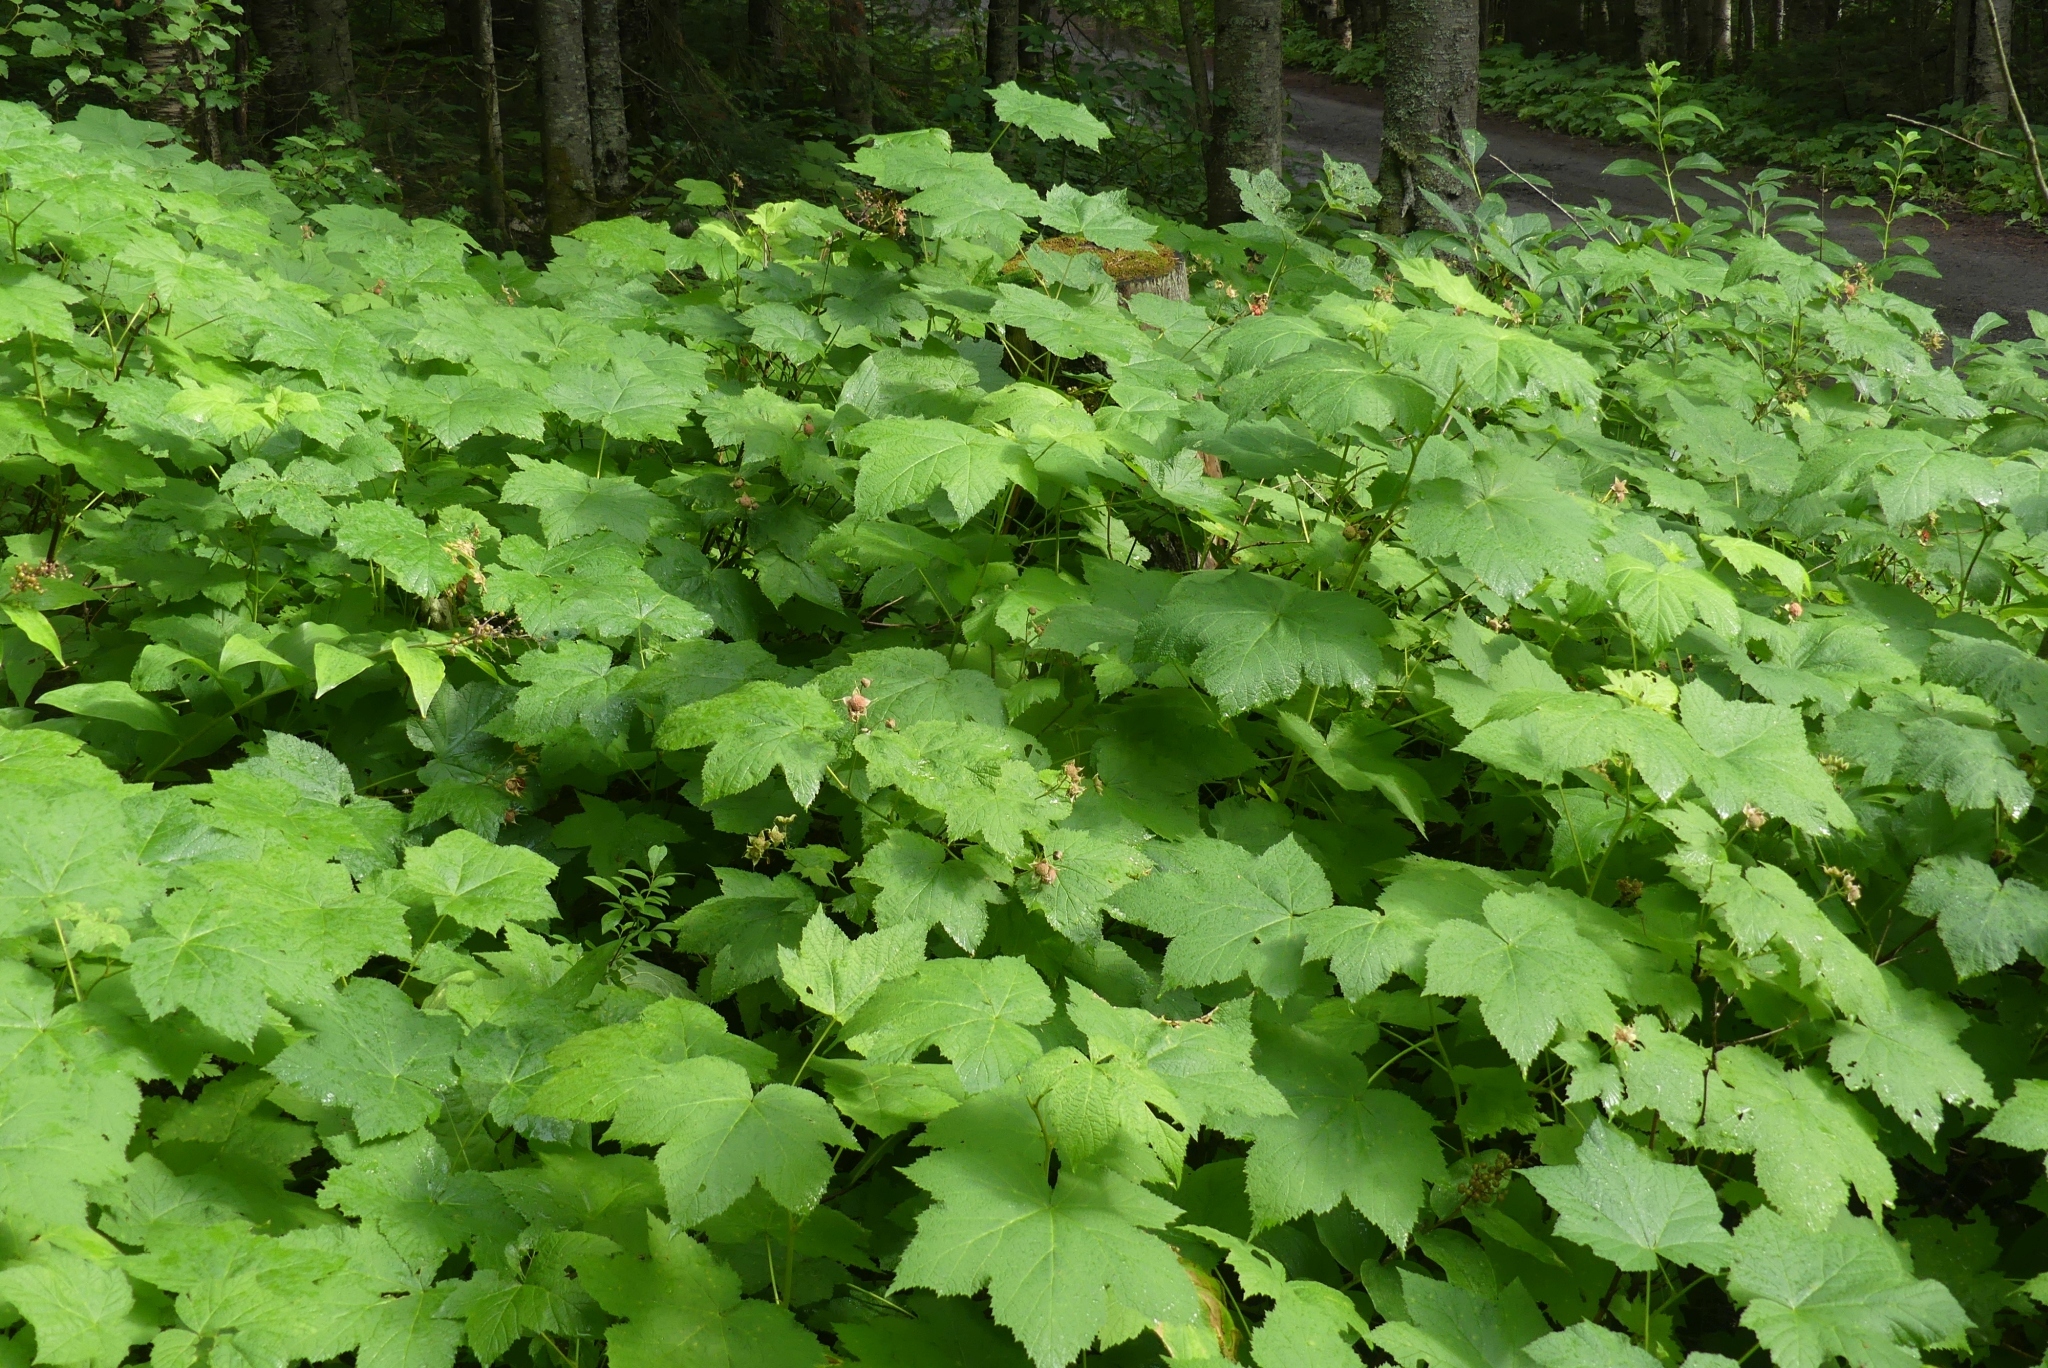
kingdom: Plantae
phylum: Tracheophyta
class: Magnoliopsida
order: Rosales
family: Rosaceae
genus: Rubus
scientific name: Rubus parviflorus
